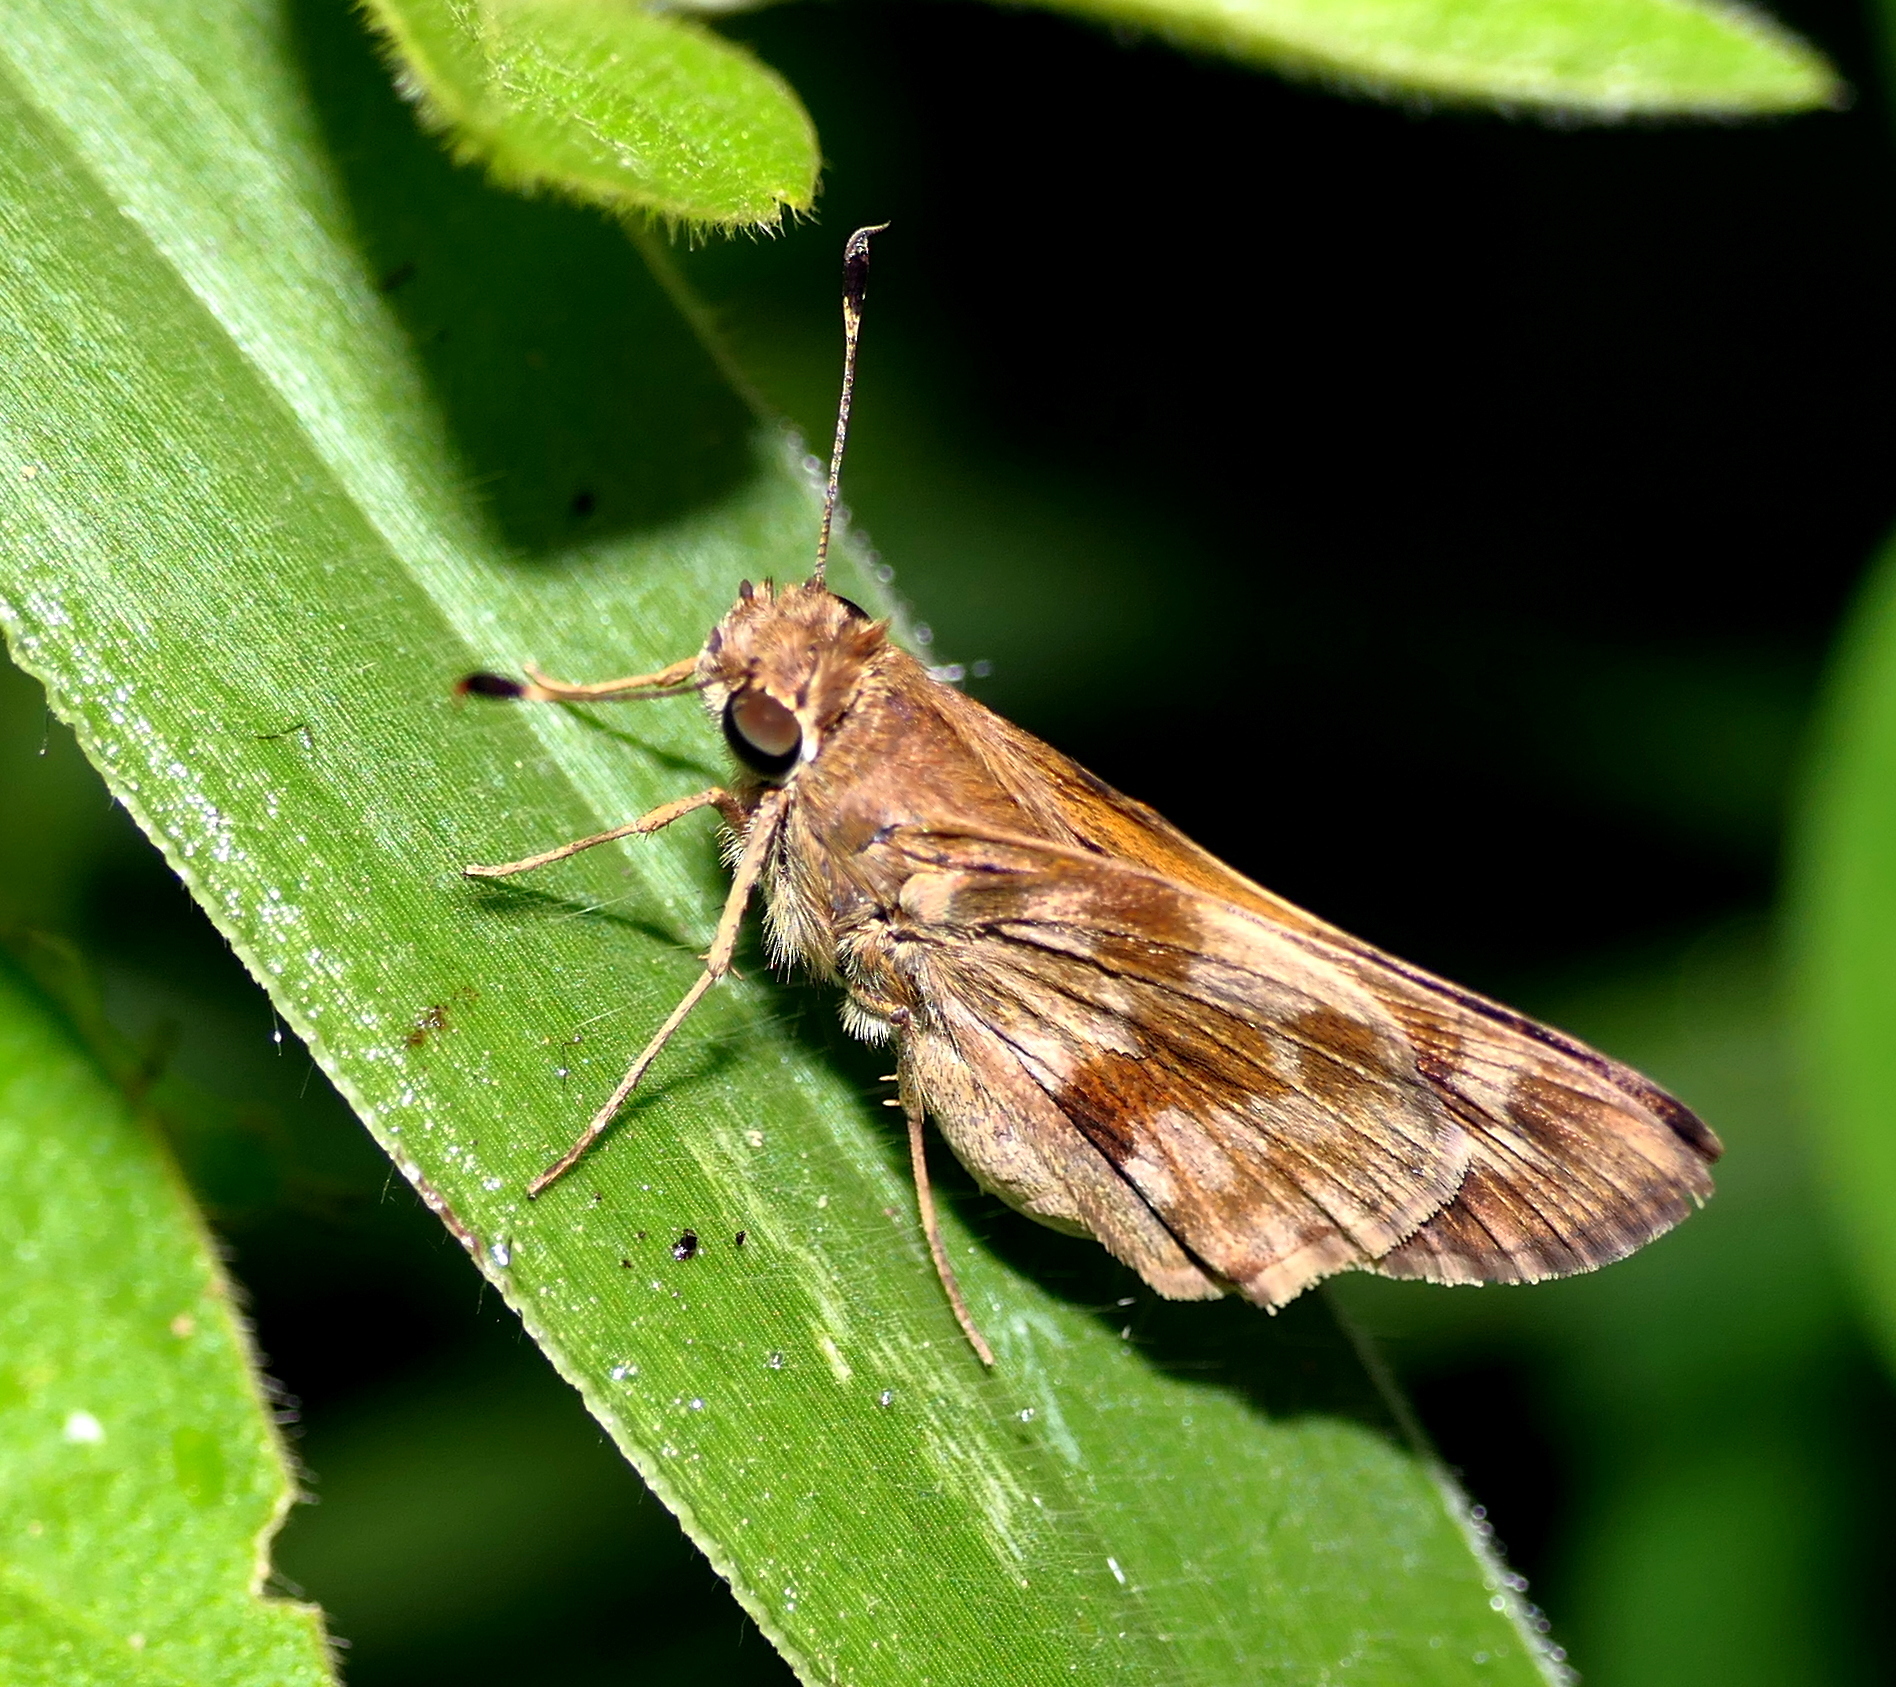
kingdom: Animalia
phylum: Arthropoda
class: Insecta
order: Lepidoptera
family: Hesperiidae
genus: Pompeius
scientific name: Pompeius pompeius
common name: Pompeius skipper
